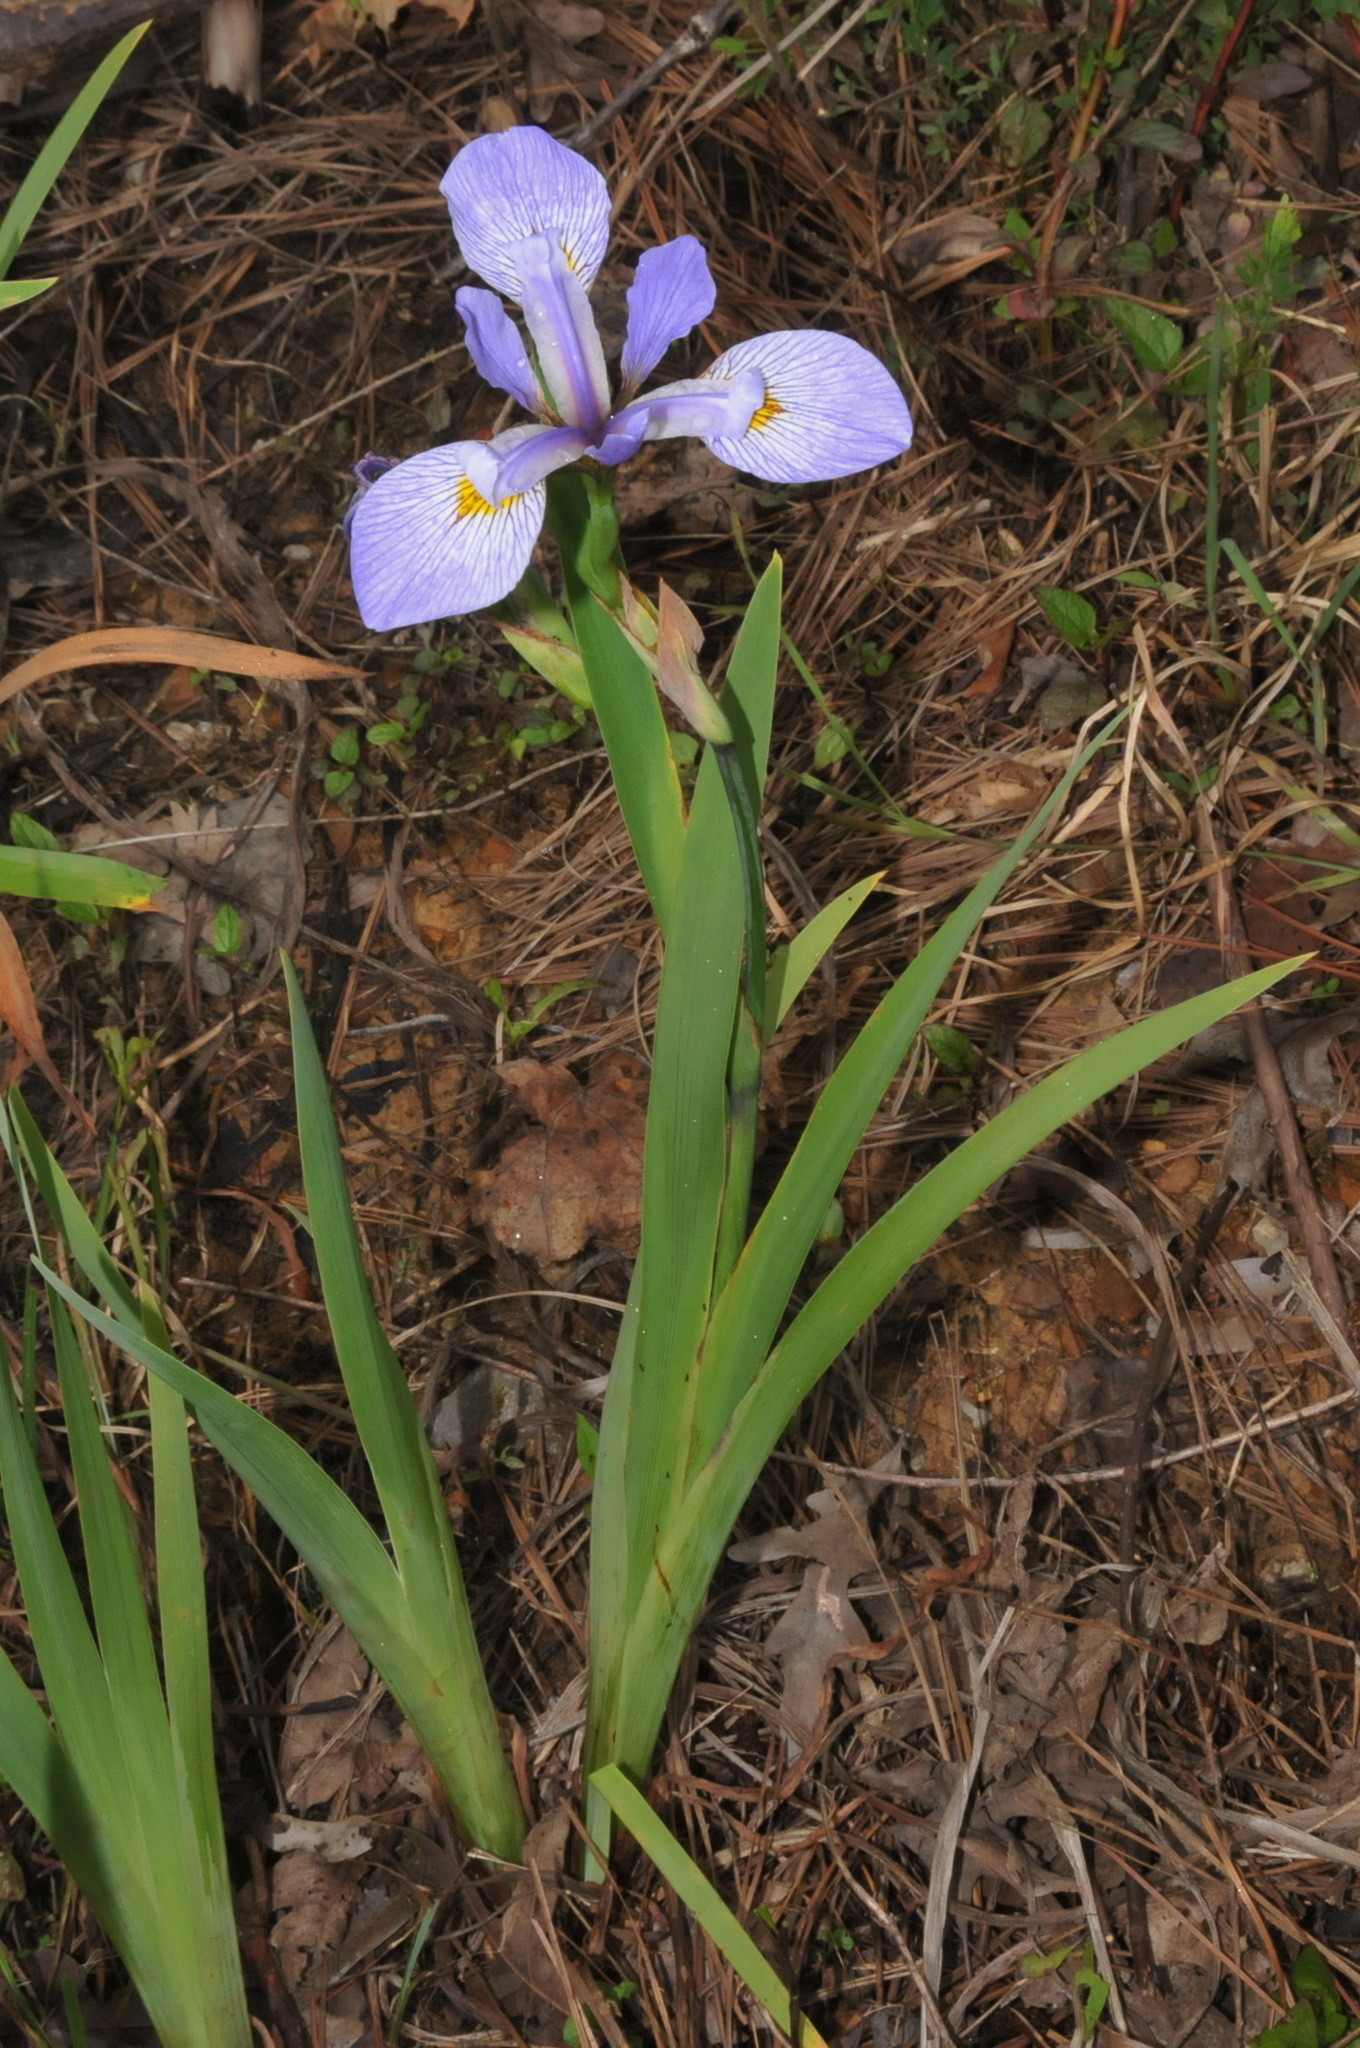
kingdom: Plantae
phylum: Tracheophyta
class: Liliopsida
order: Asparagales
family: Iridaceae
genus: Iris
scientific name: Iris virginica
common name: Southern blue flag
